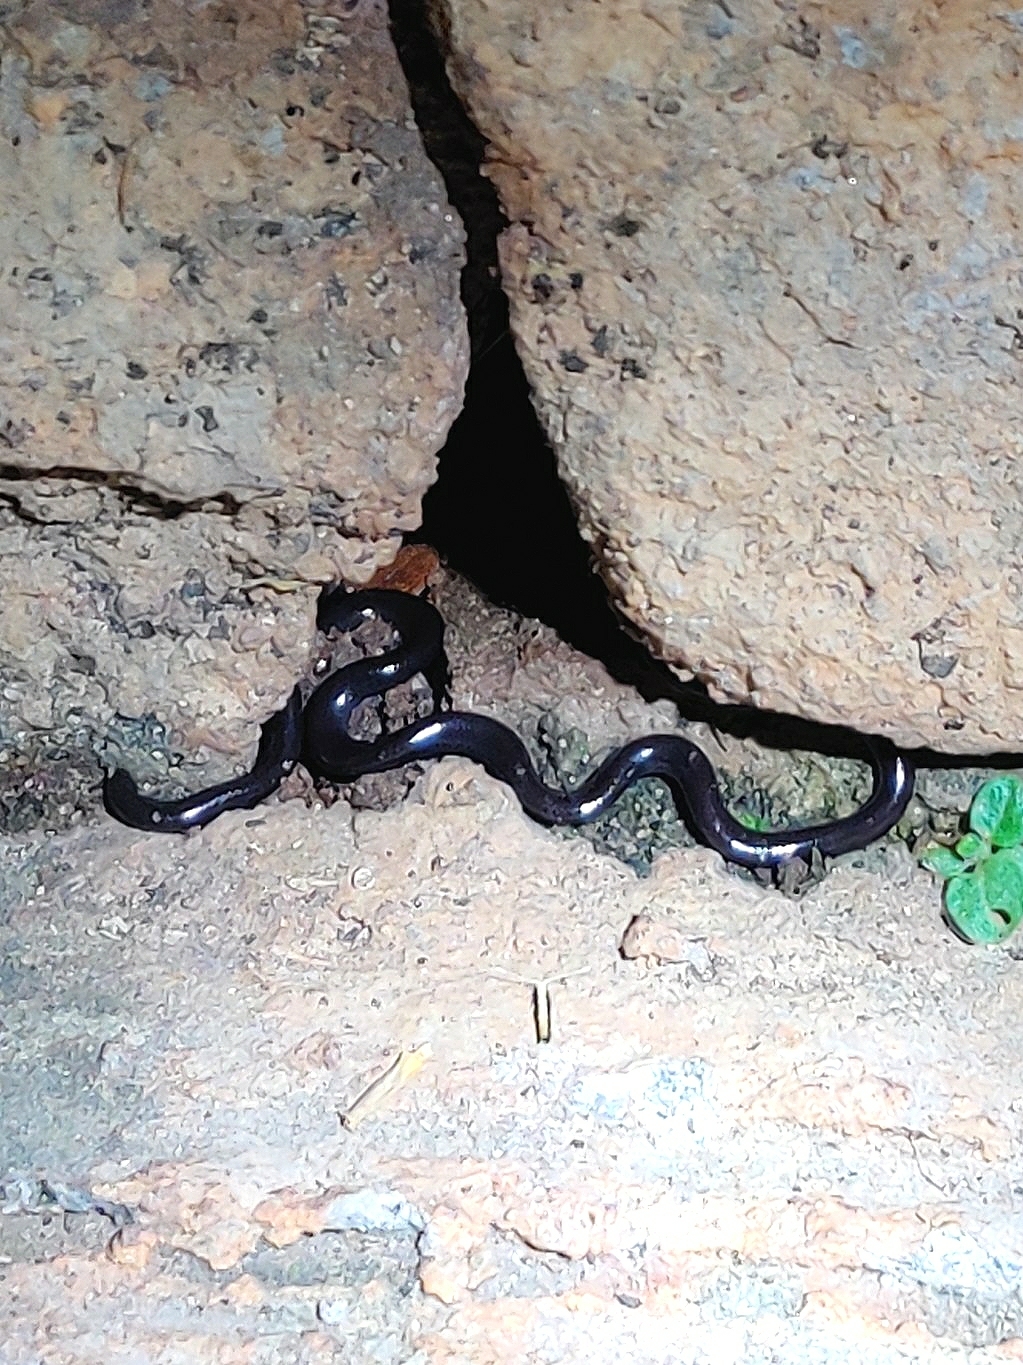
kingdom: Animalia
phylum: Chordata
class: Squamata
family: Typhlopidae
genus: Indotyphlops
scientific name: Indotyphlops braminus
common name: Brahminy blindsnake
